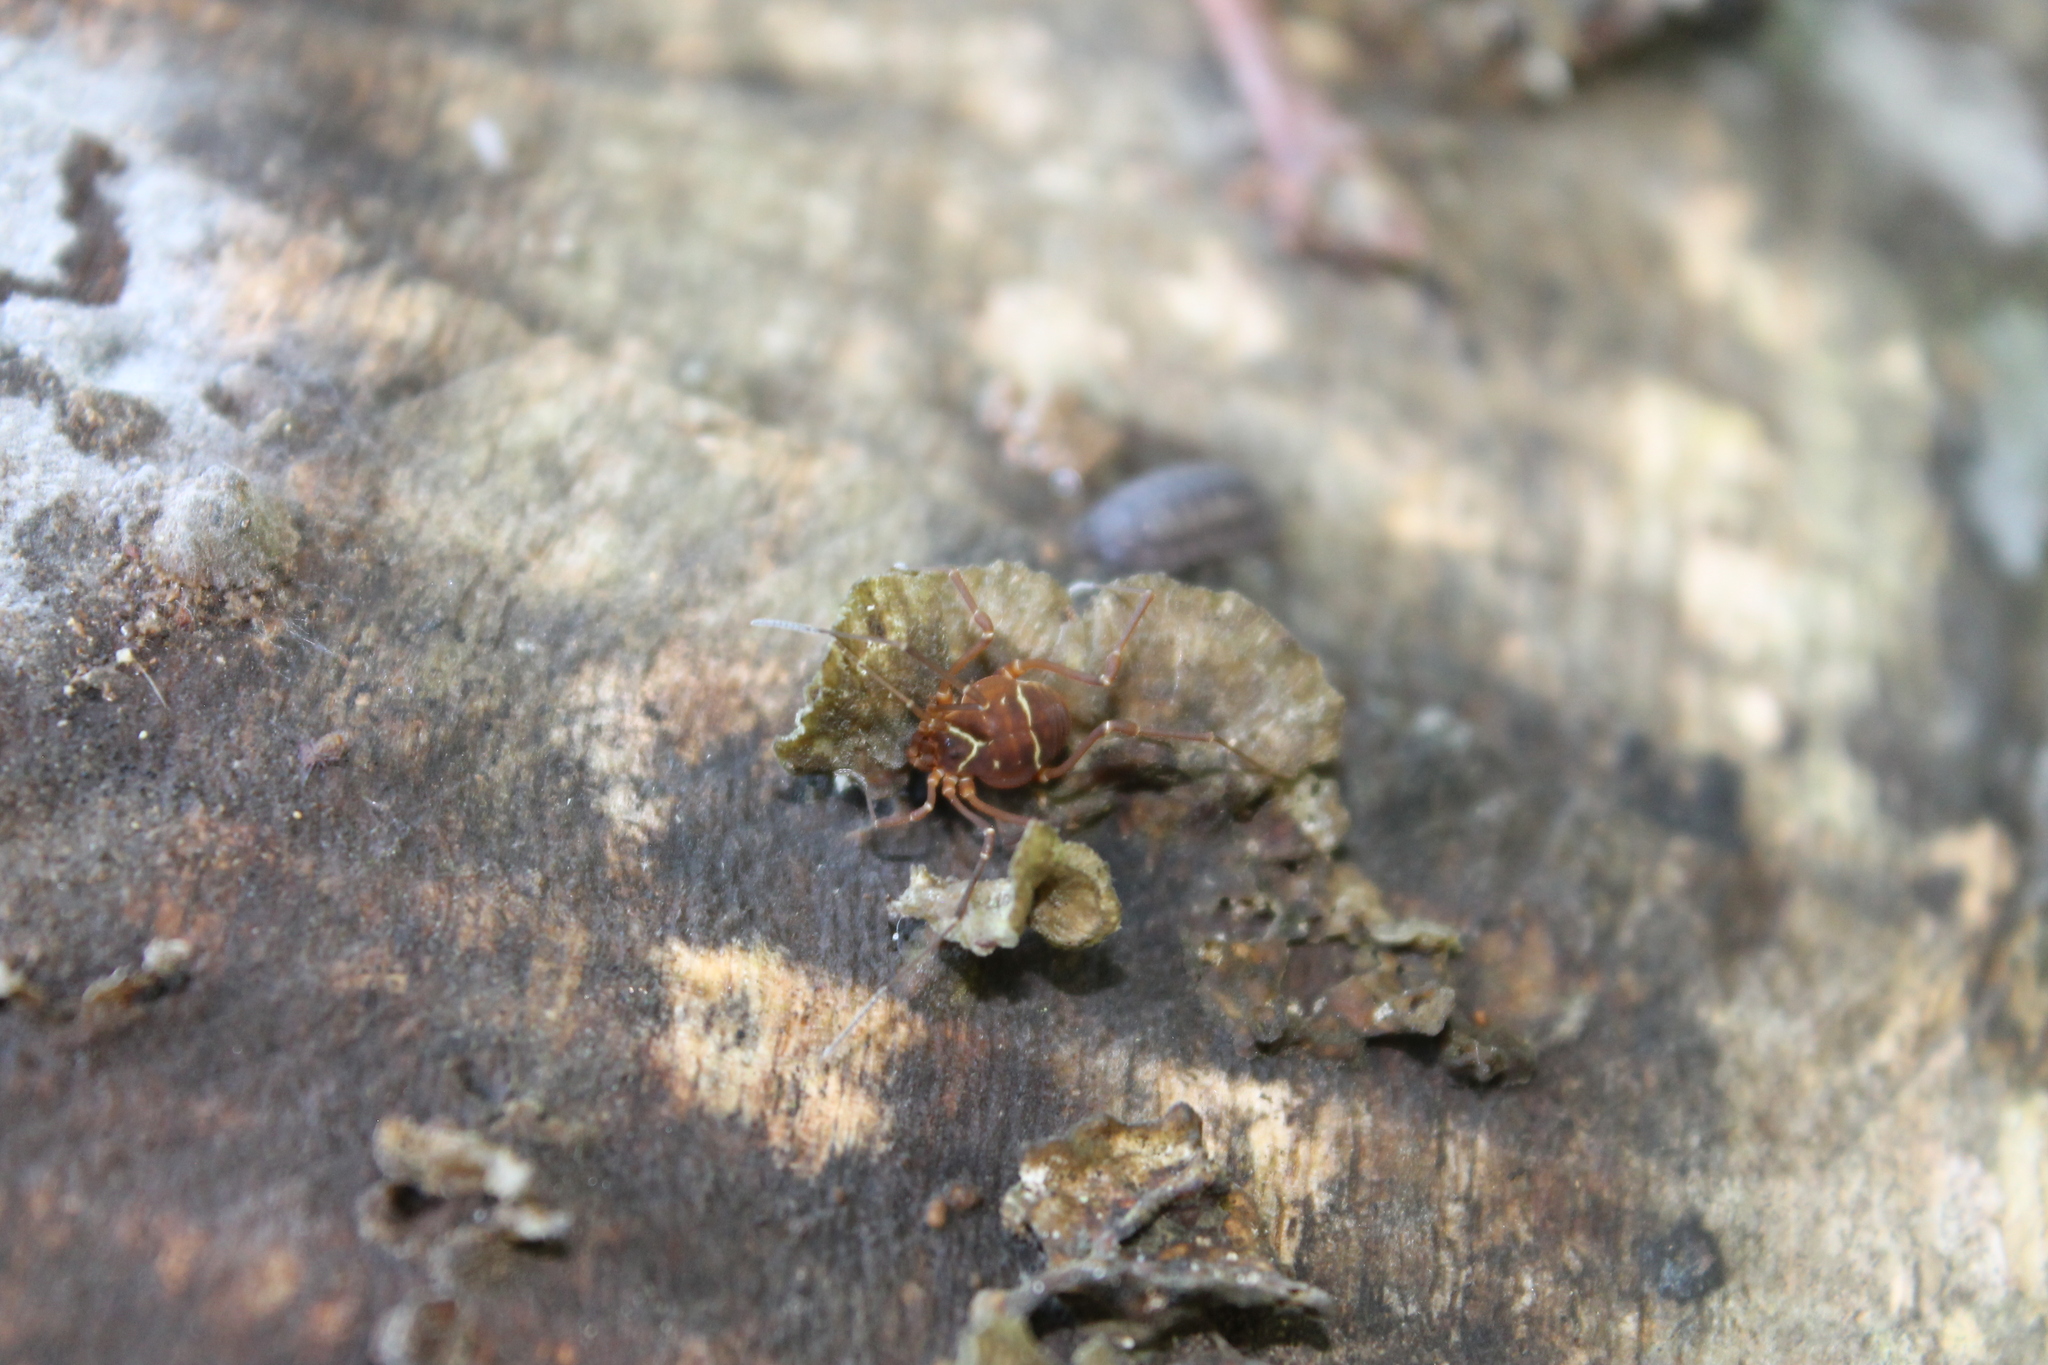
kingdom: Animalia
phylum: Arthropoda
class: Arachnida
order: Opiliones
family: Cosmetidae
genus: Libitioides
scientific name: Libitioides sayi
